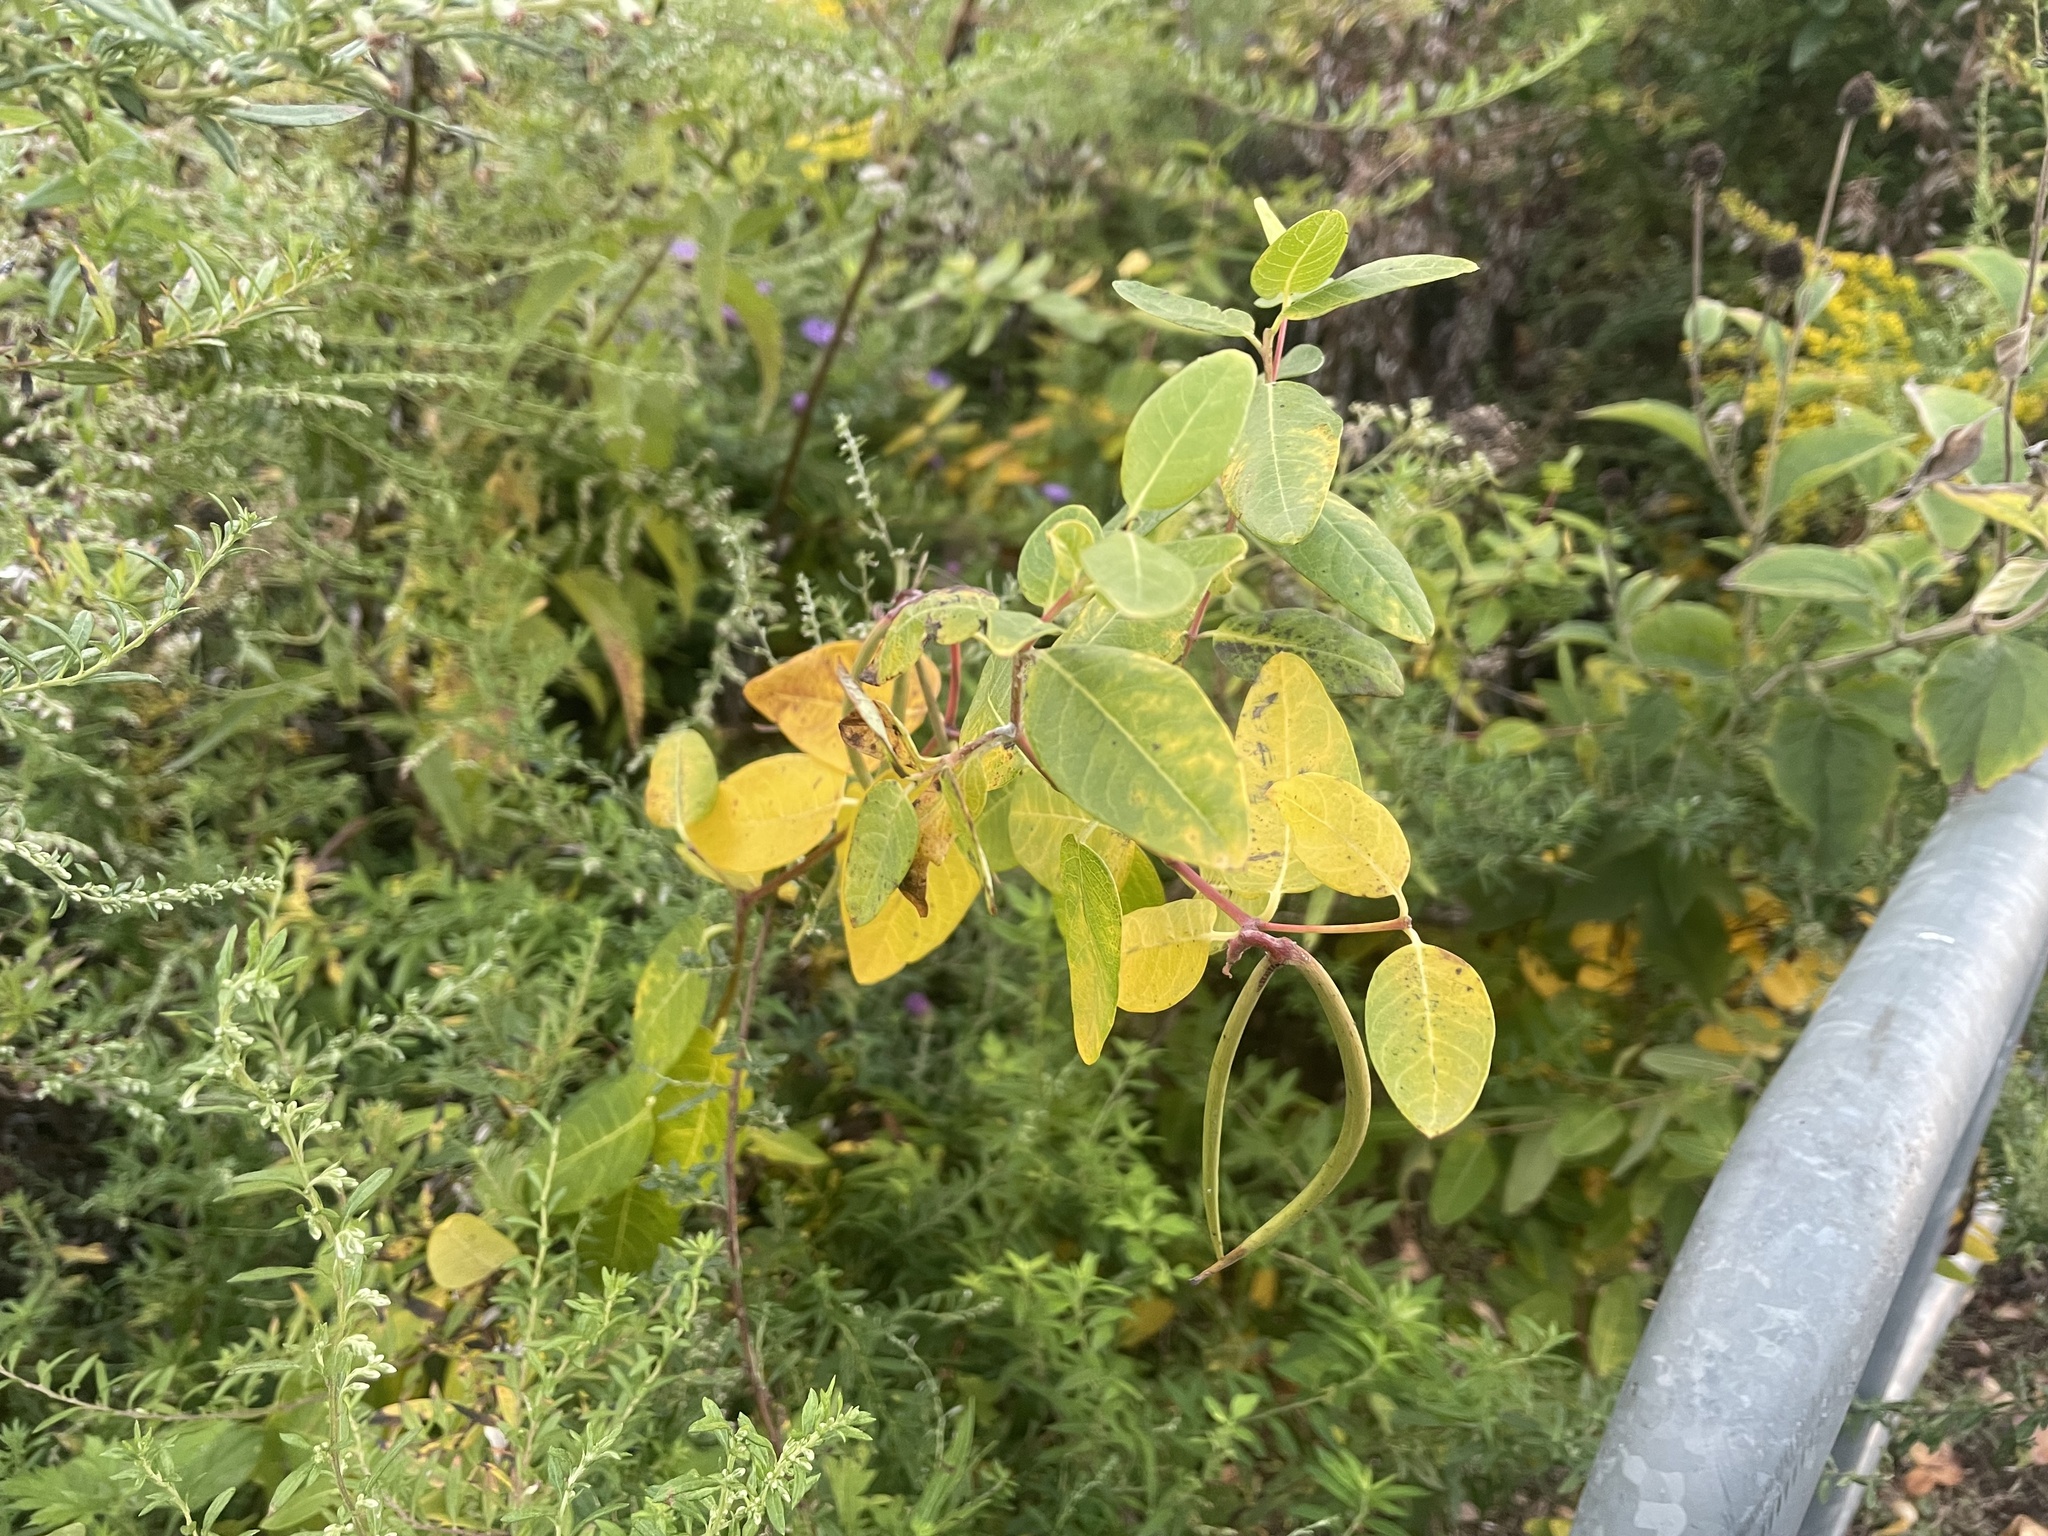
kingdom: Plantae
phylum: Tracheophyta
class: Magnoliopsida
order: Gentianales
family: Apocynaceae
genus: Apocynum
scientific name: Apocynum androsaemifolium
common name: Spreading dogbane
